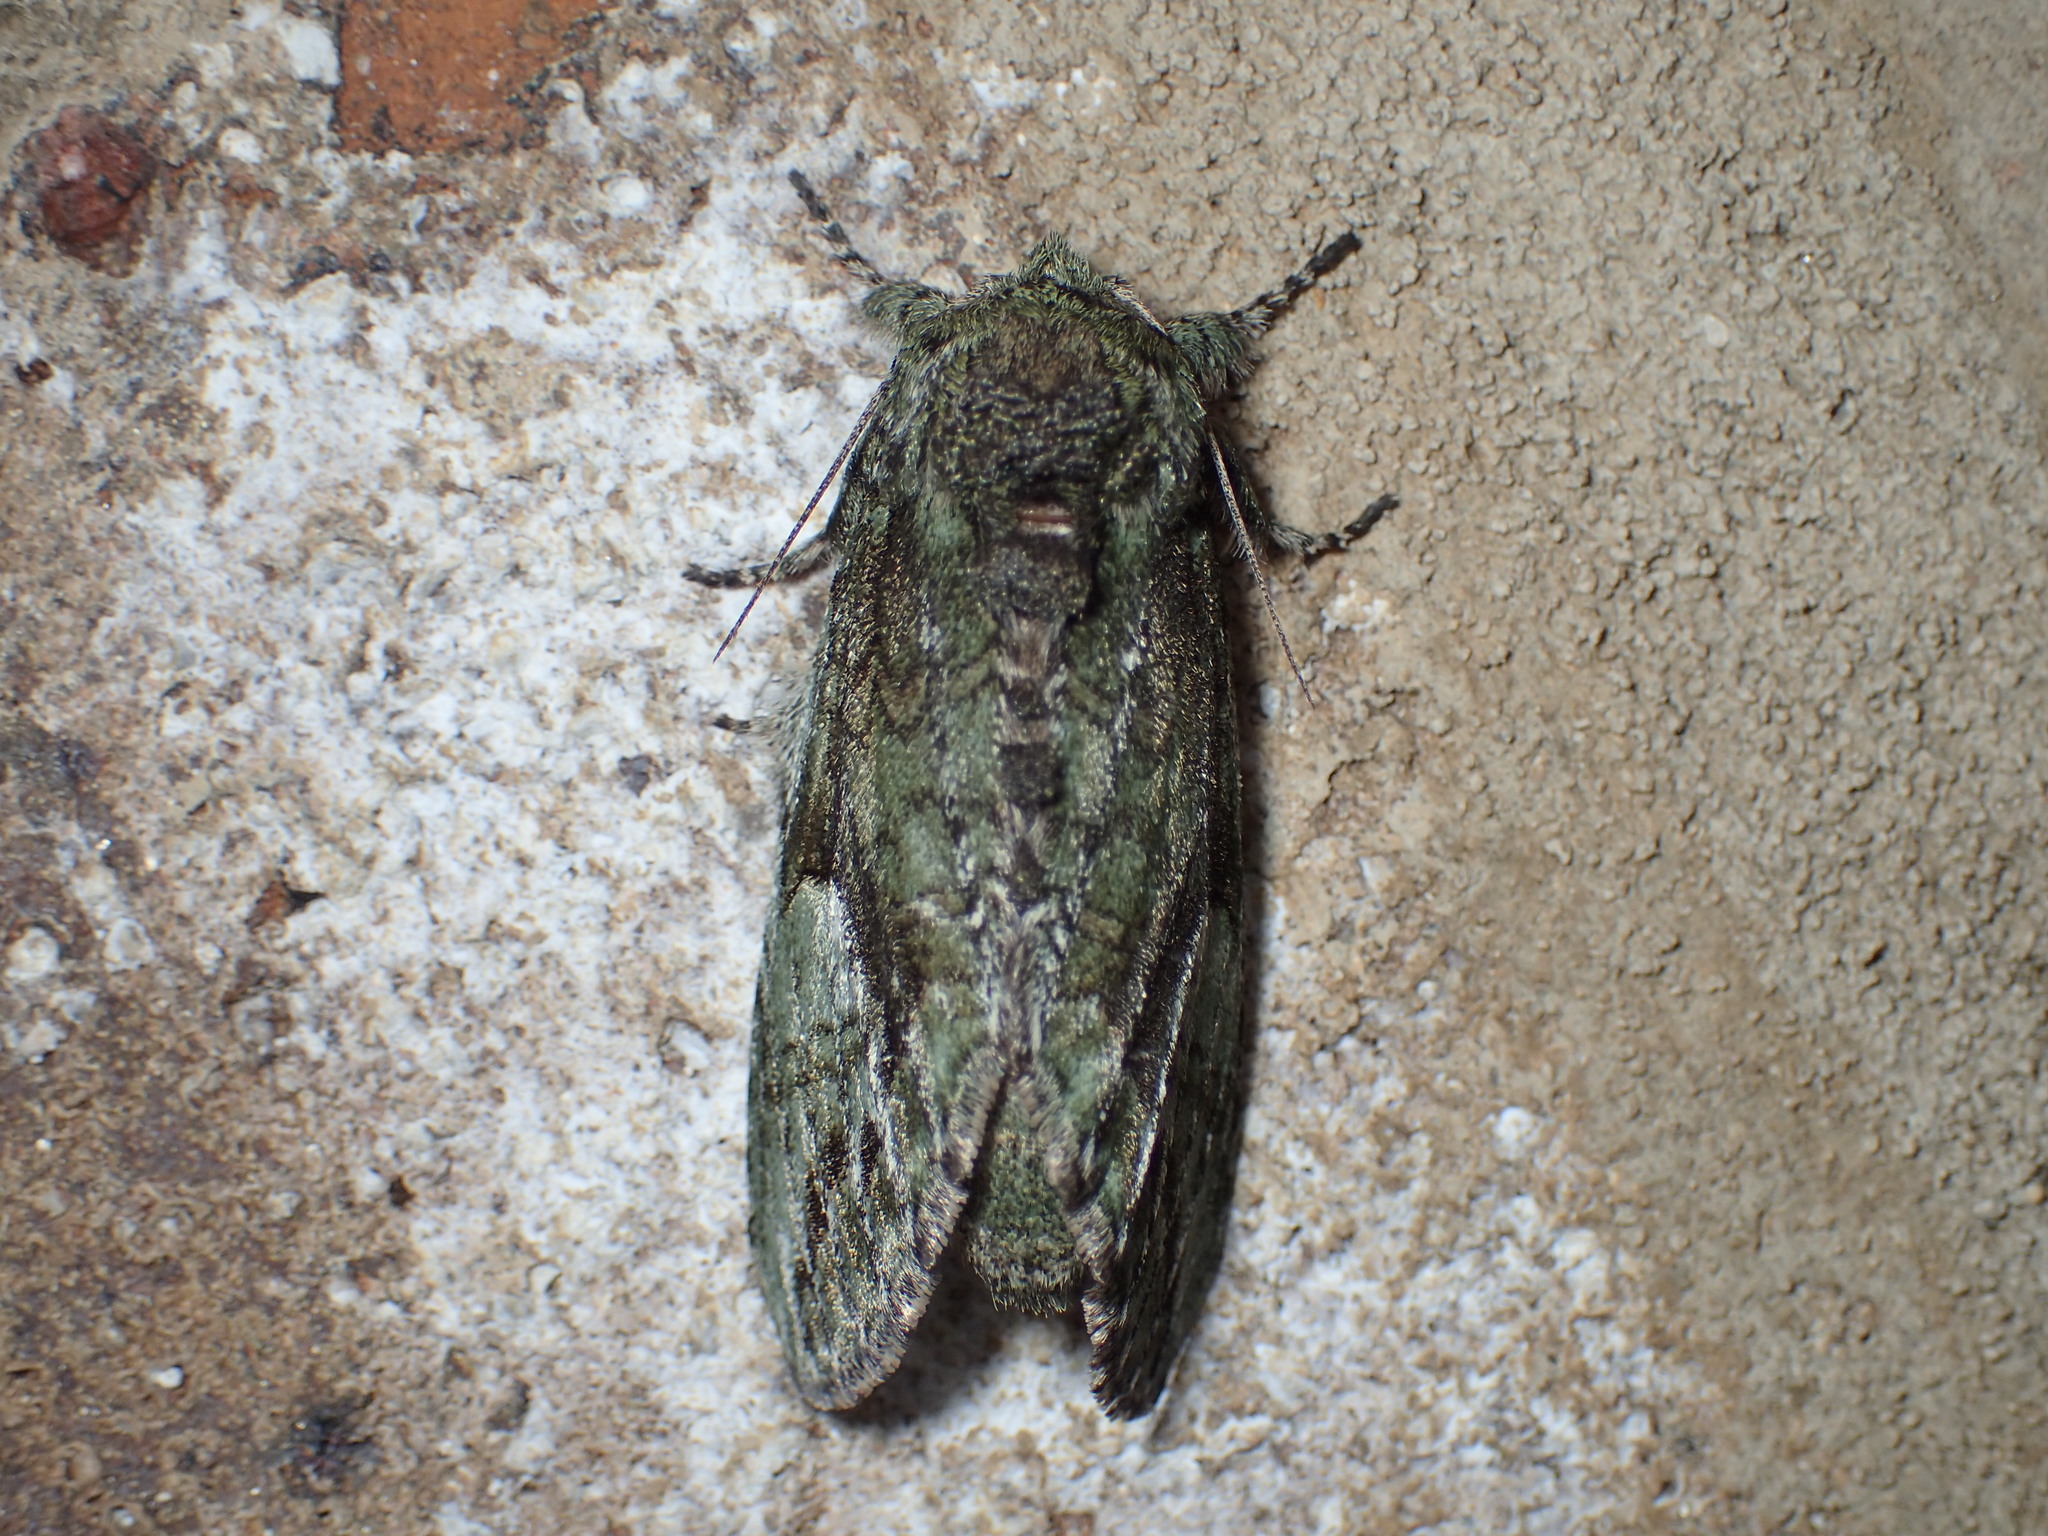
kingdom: Animalia
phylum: Arthropoda
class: Insecta
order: Lepidoptera
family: Notodontidae
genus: Heterocampa
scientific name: Heterocampa
